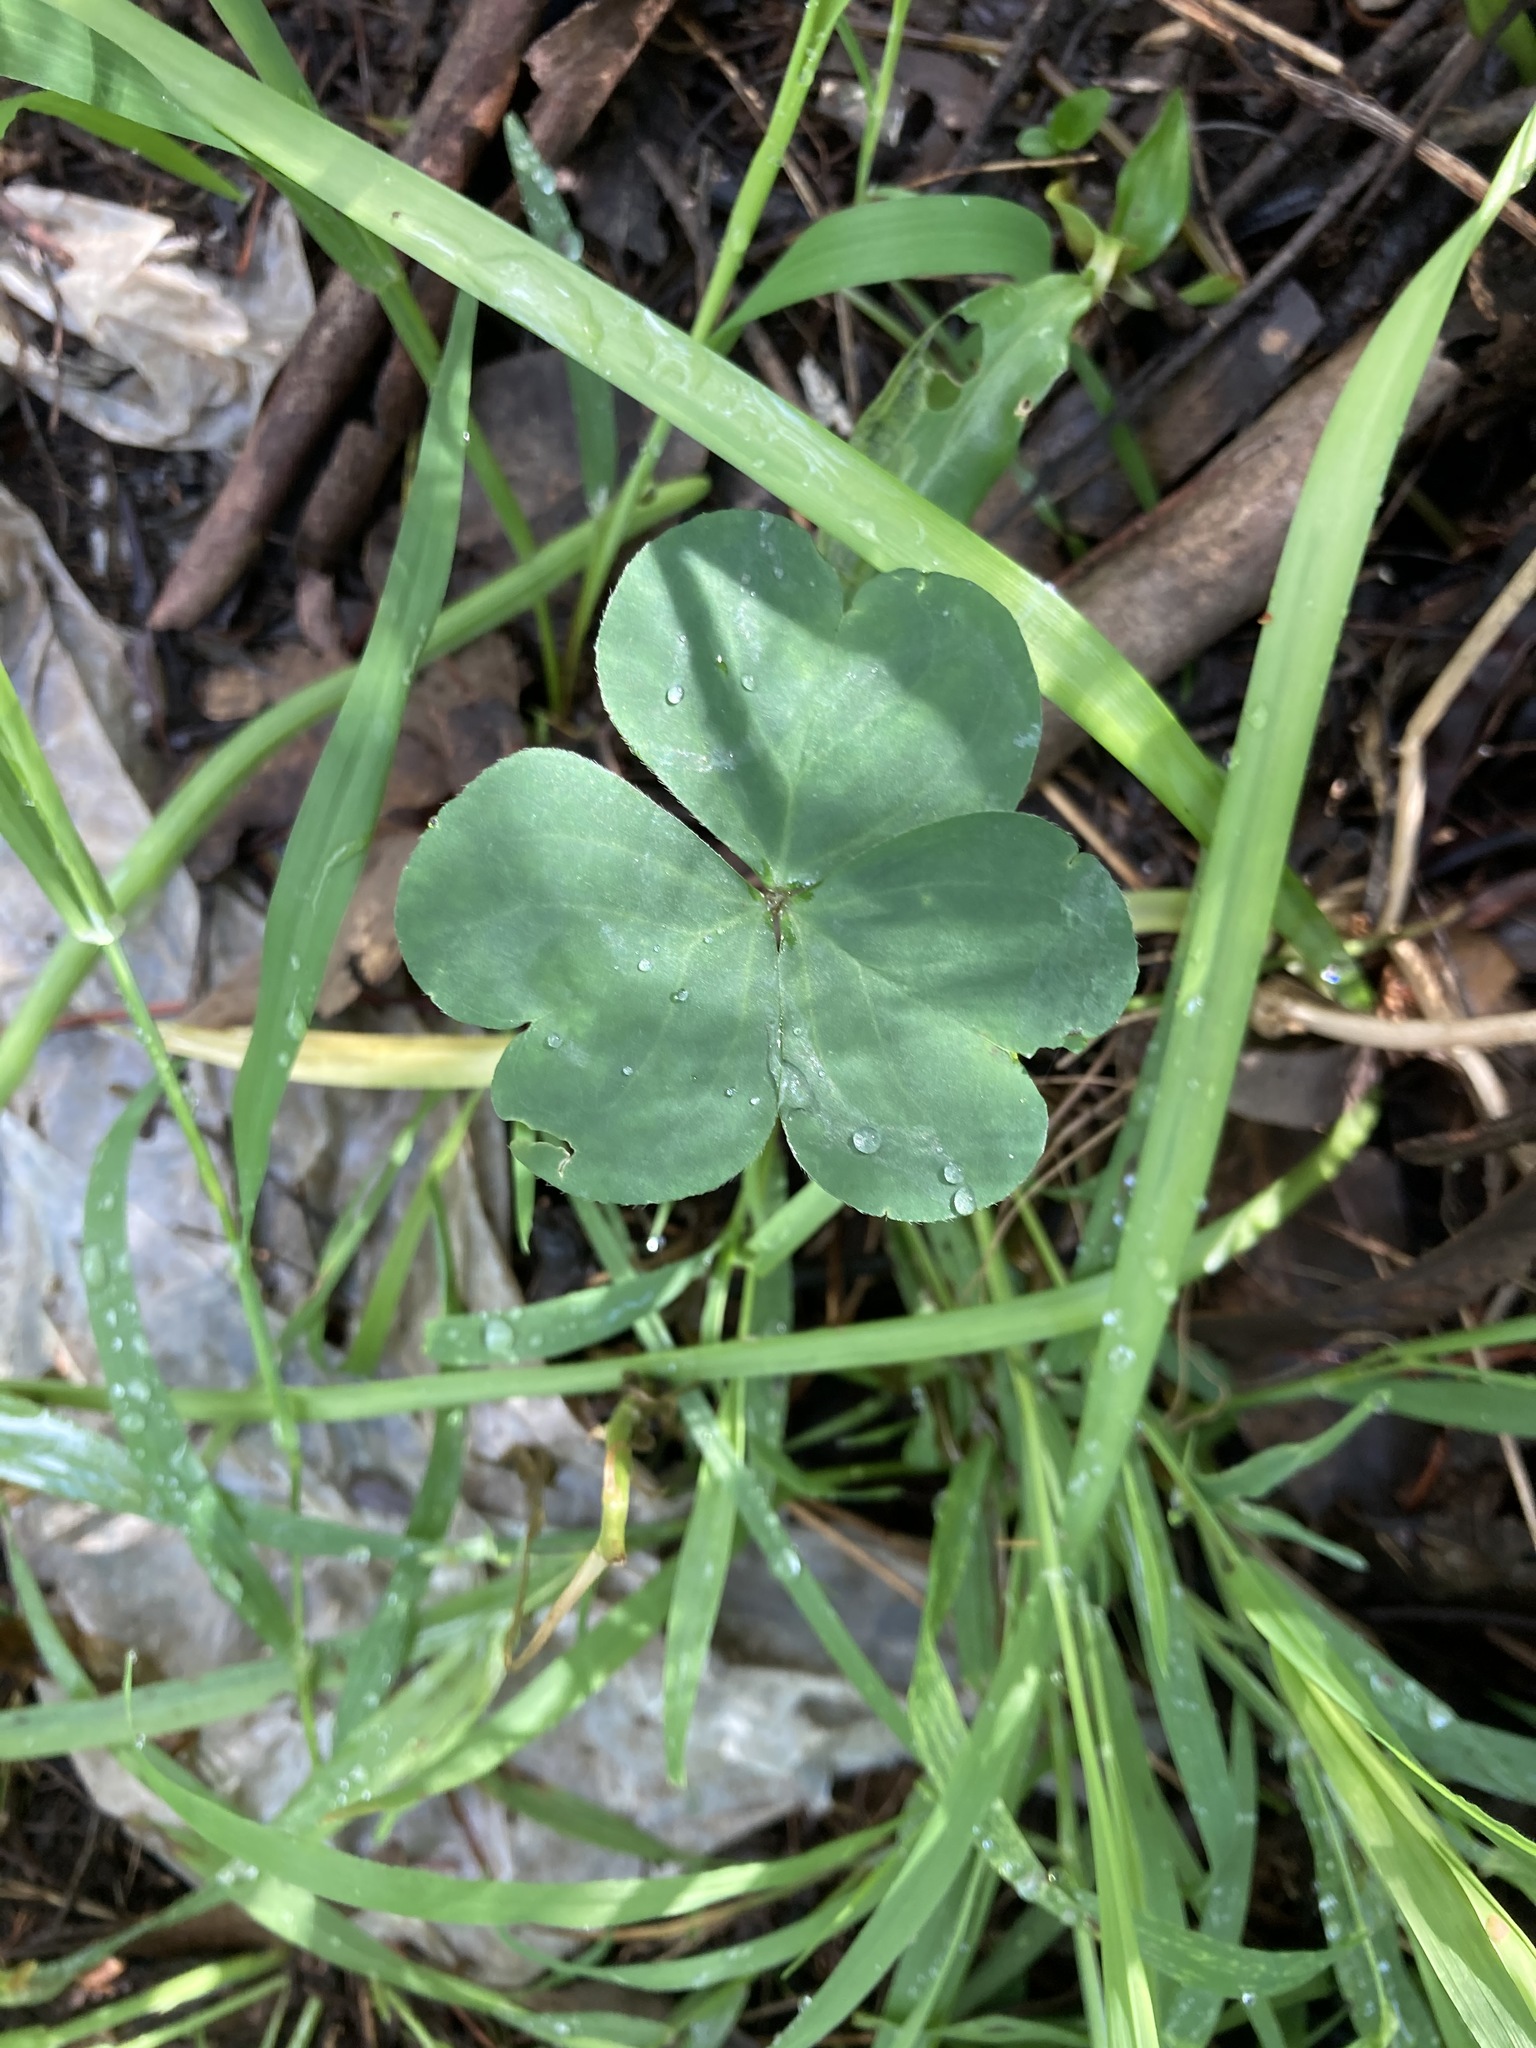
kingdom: Plantae
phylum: Tracheophyta
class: Magnoliopsida
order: Oxalidales
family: Oxalidaceae
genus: Oxalis
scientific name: Oxalis debilis
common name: Large-flowered pink-sorrel
